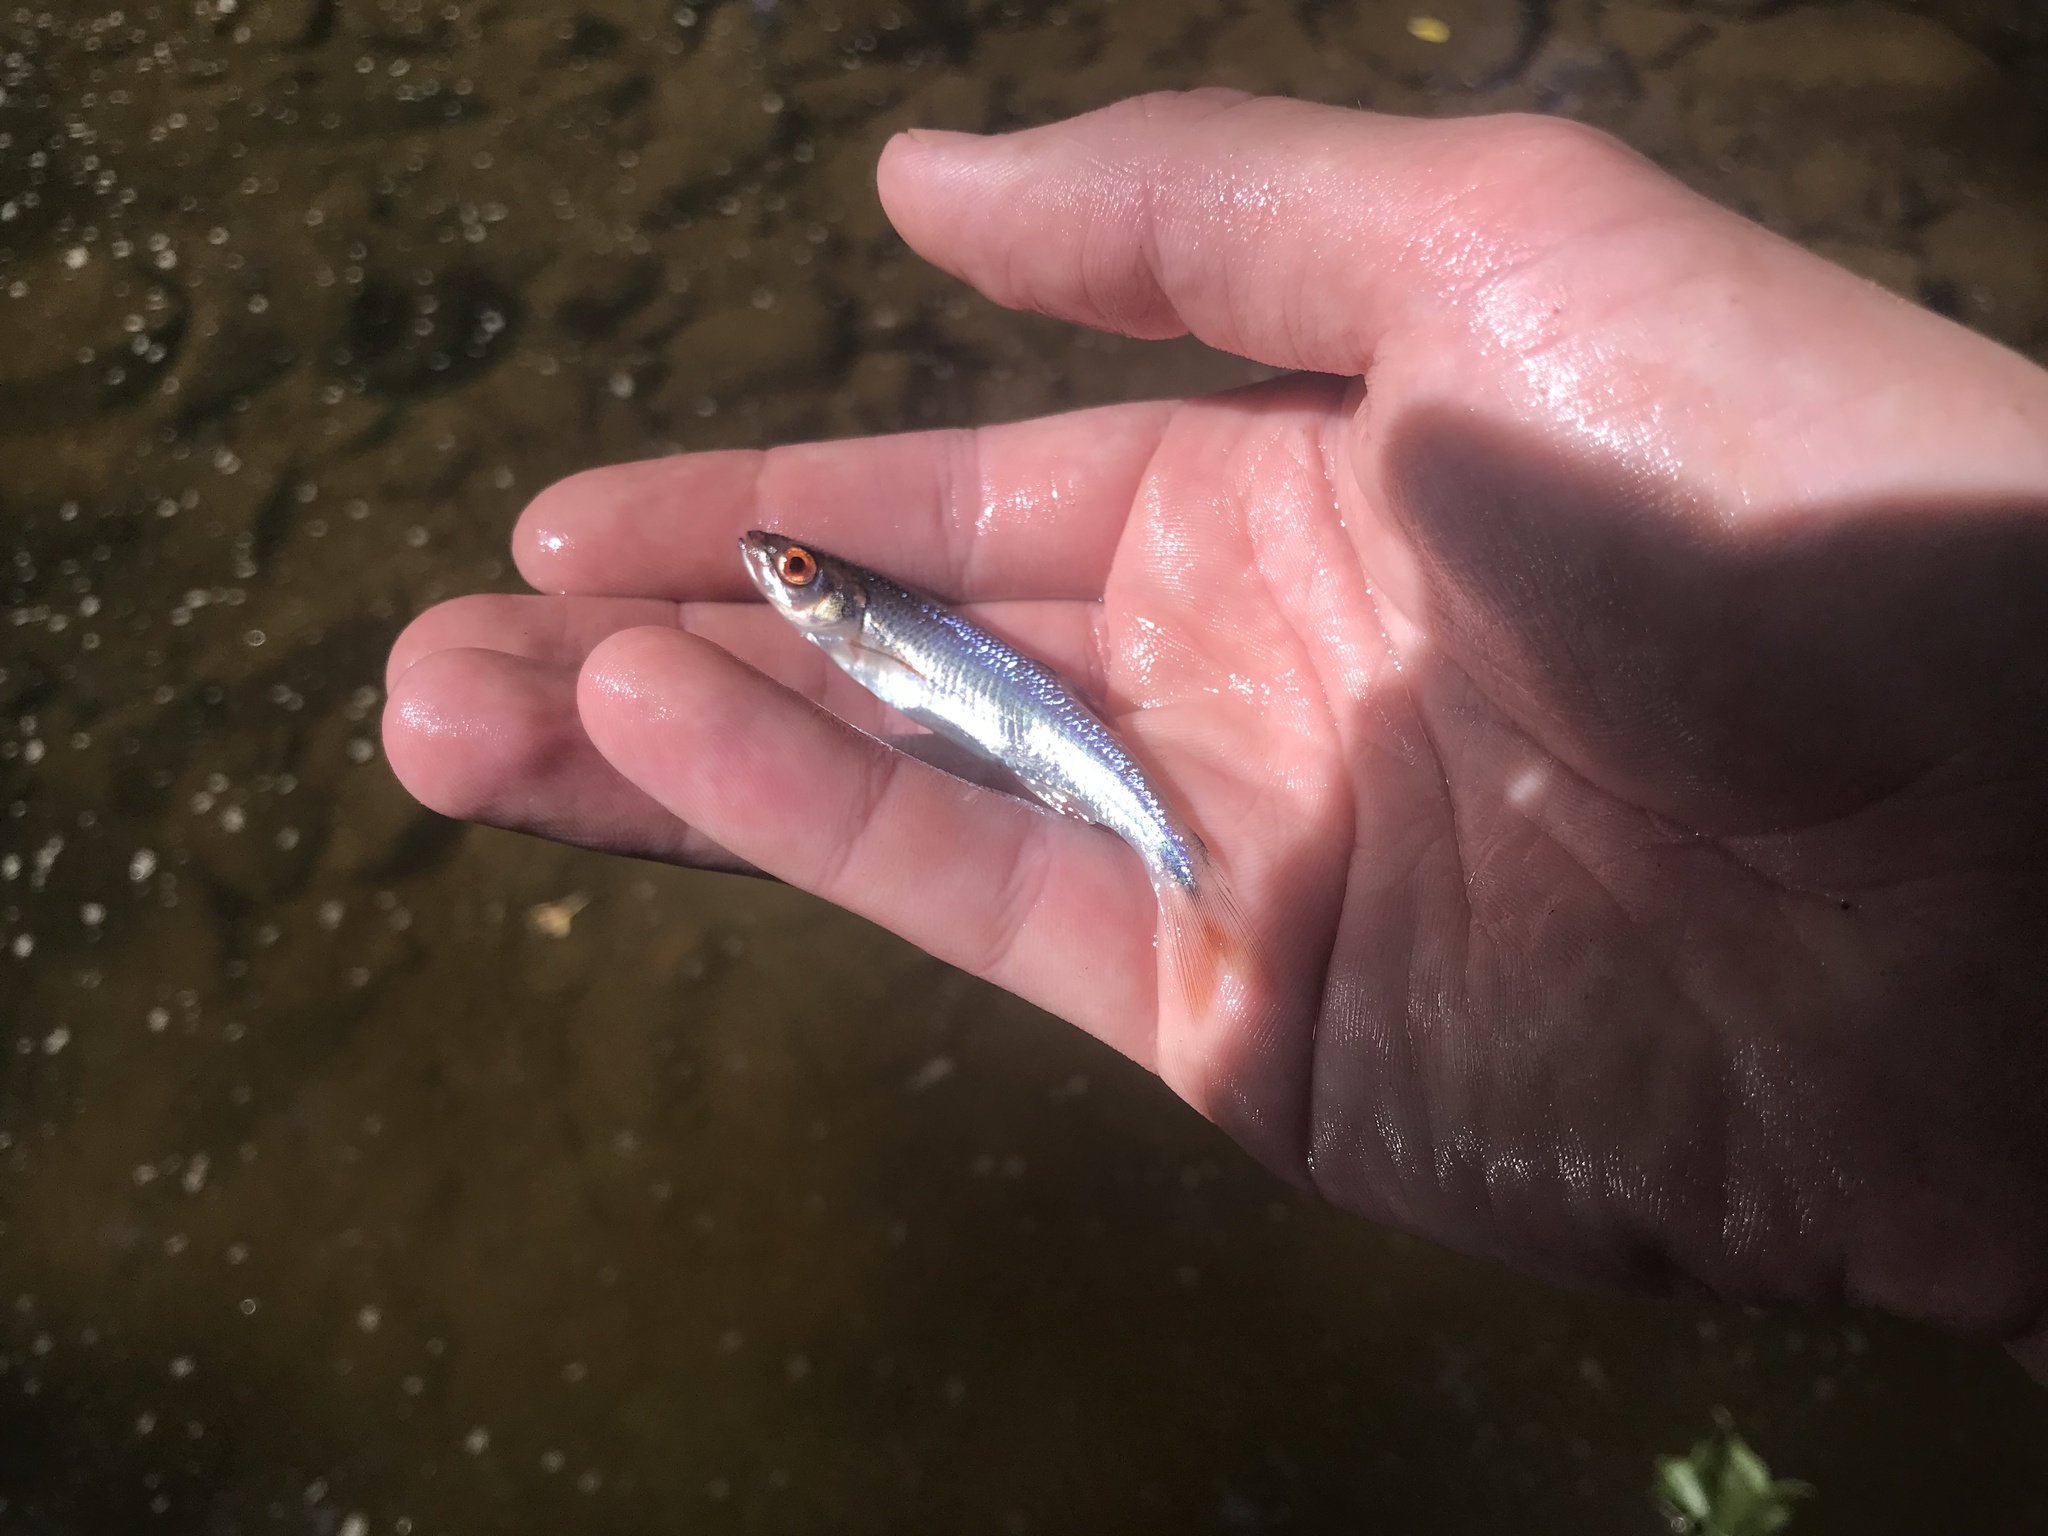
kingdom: Animalia
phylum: Chordata
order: Cypriniformes
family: Cyprinidae
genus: Lythrurus
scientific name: Lythrurus matutinus
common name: Pinewoods shiner
